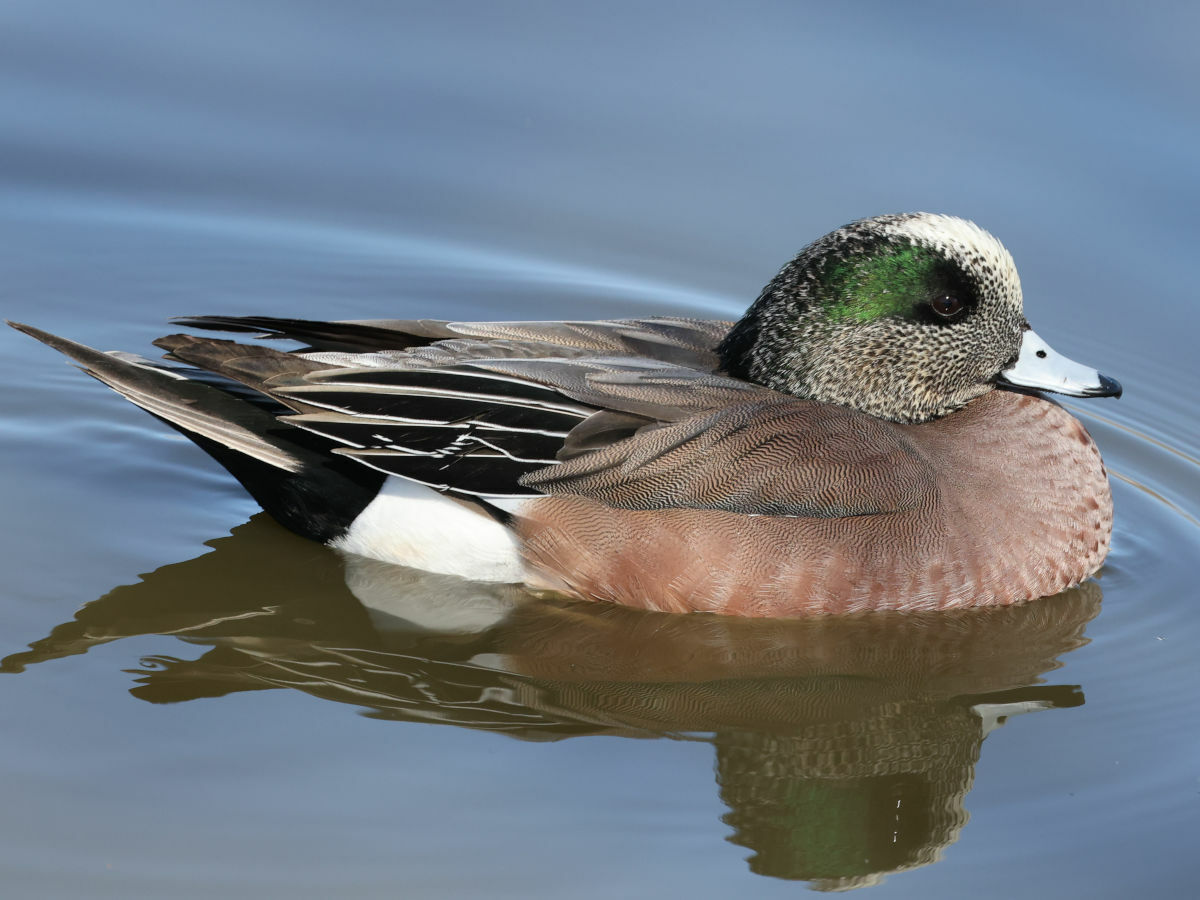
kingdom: Animalia
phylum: Chordata
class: Aves
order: Anseriformes
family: Anatidae
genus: Mareca
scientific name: Mareca americana
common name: American wigeon
